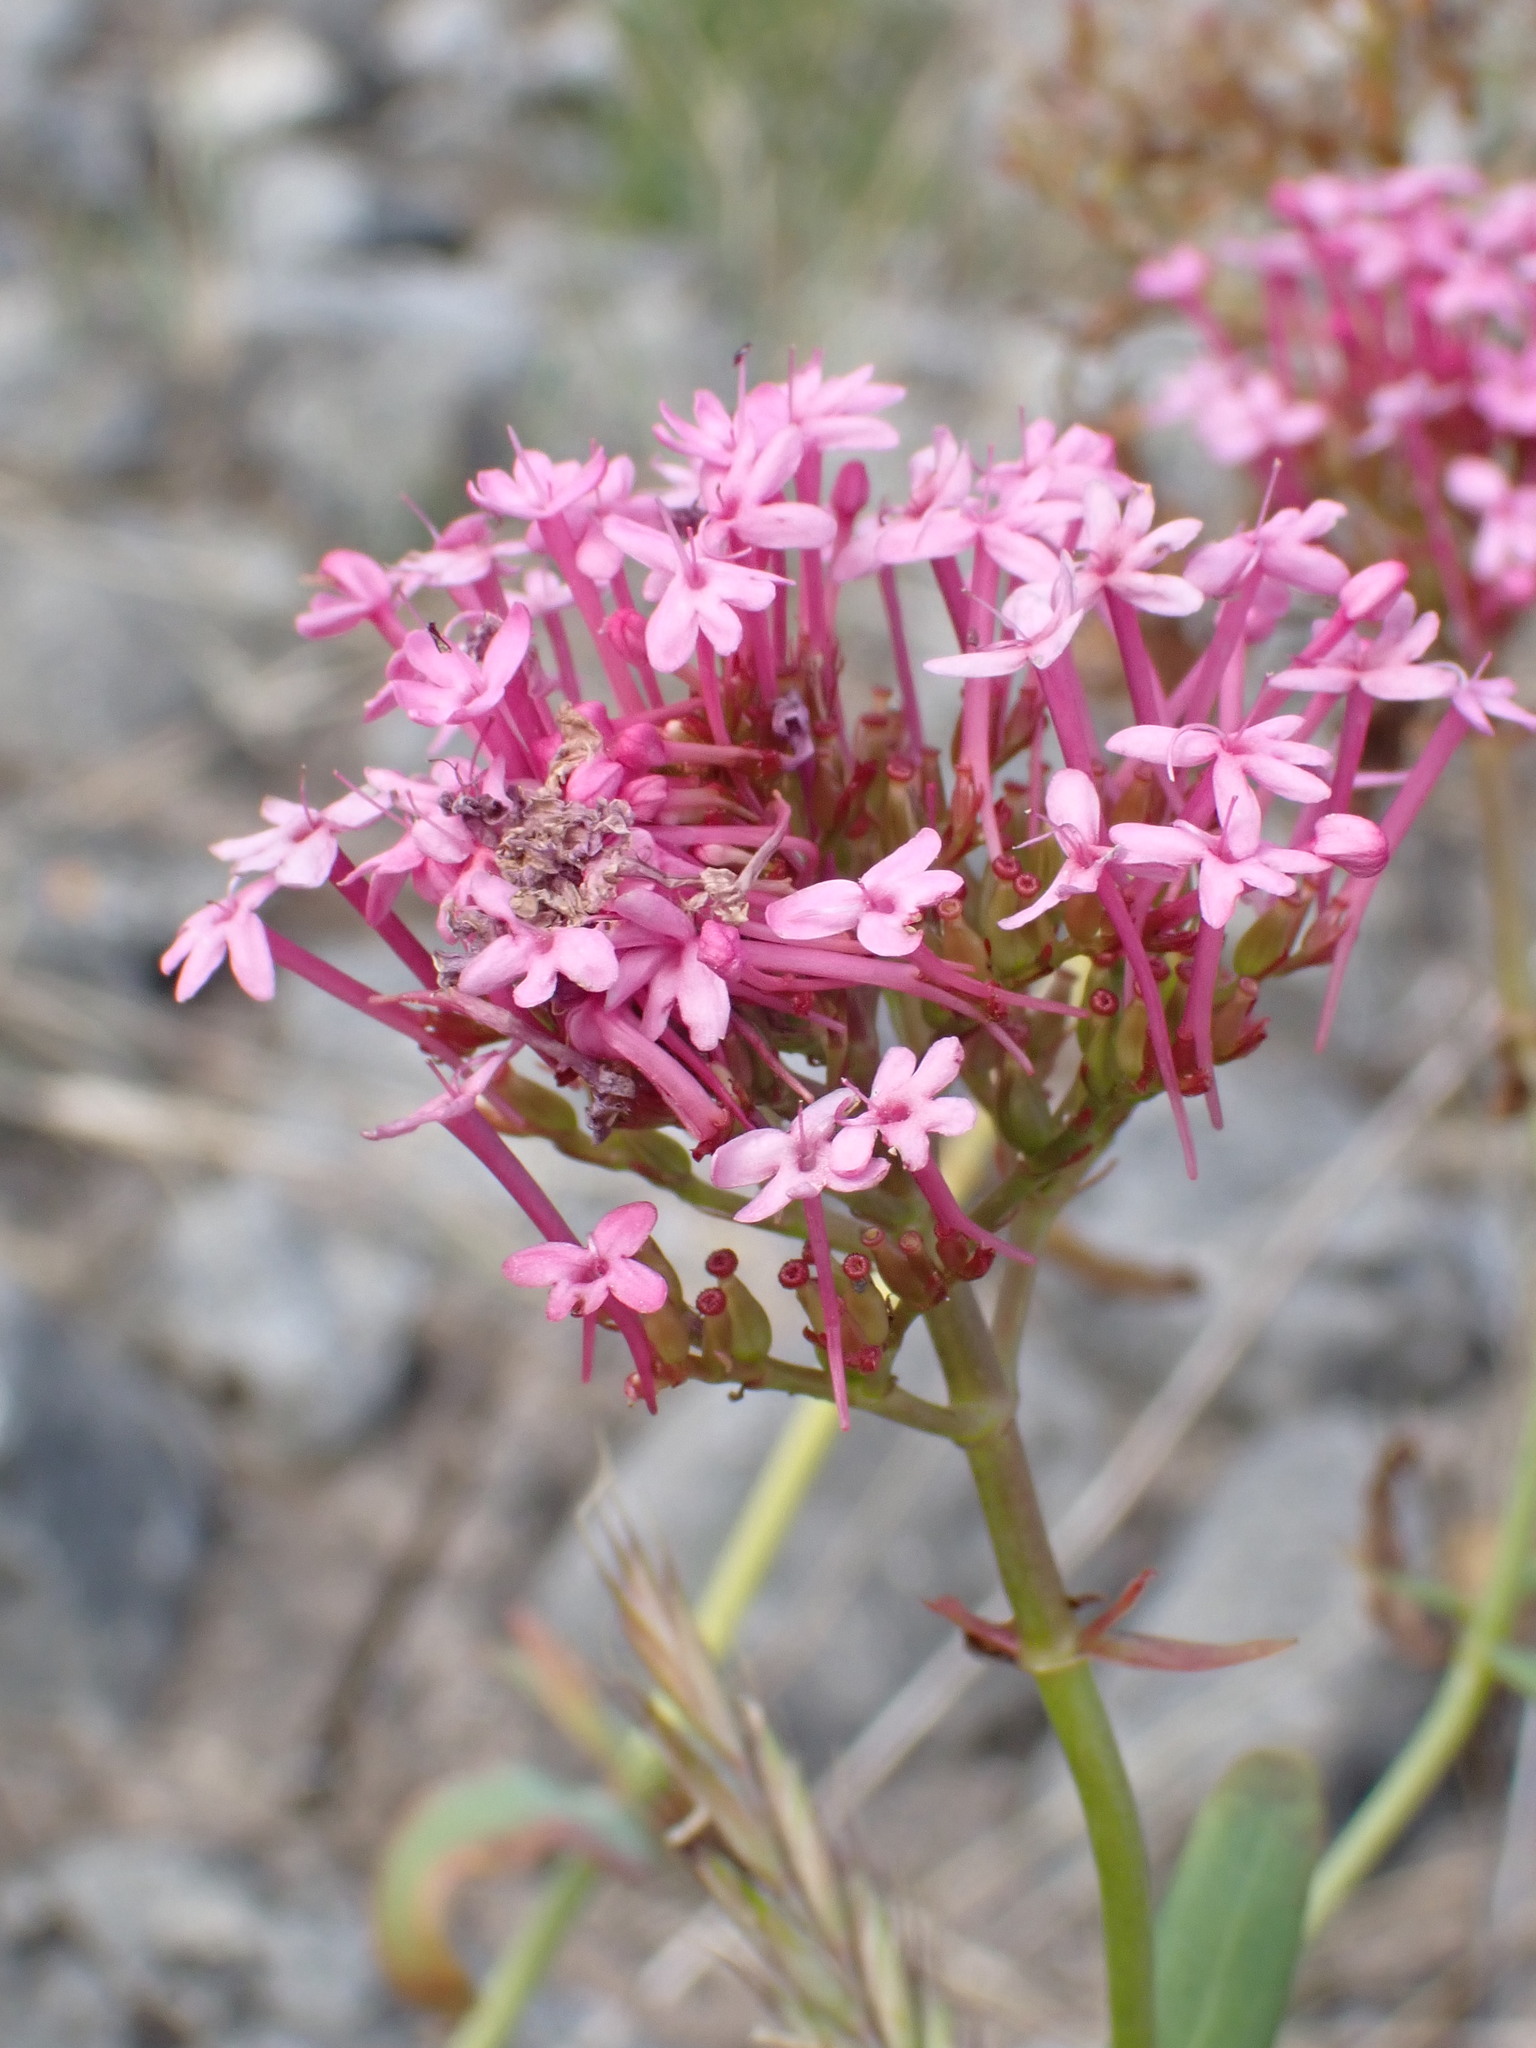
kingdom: Plantae
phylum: Tracheophyta
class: Magnoliopsida
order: Dipsacales
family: Caprifoliaceae
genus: Centranthus
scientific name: Centranthus ruber
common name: Red valerian
